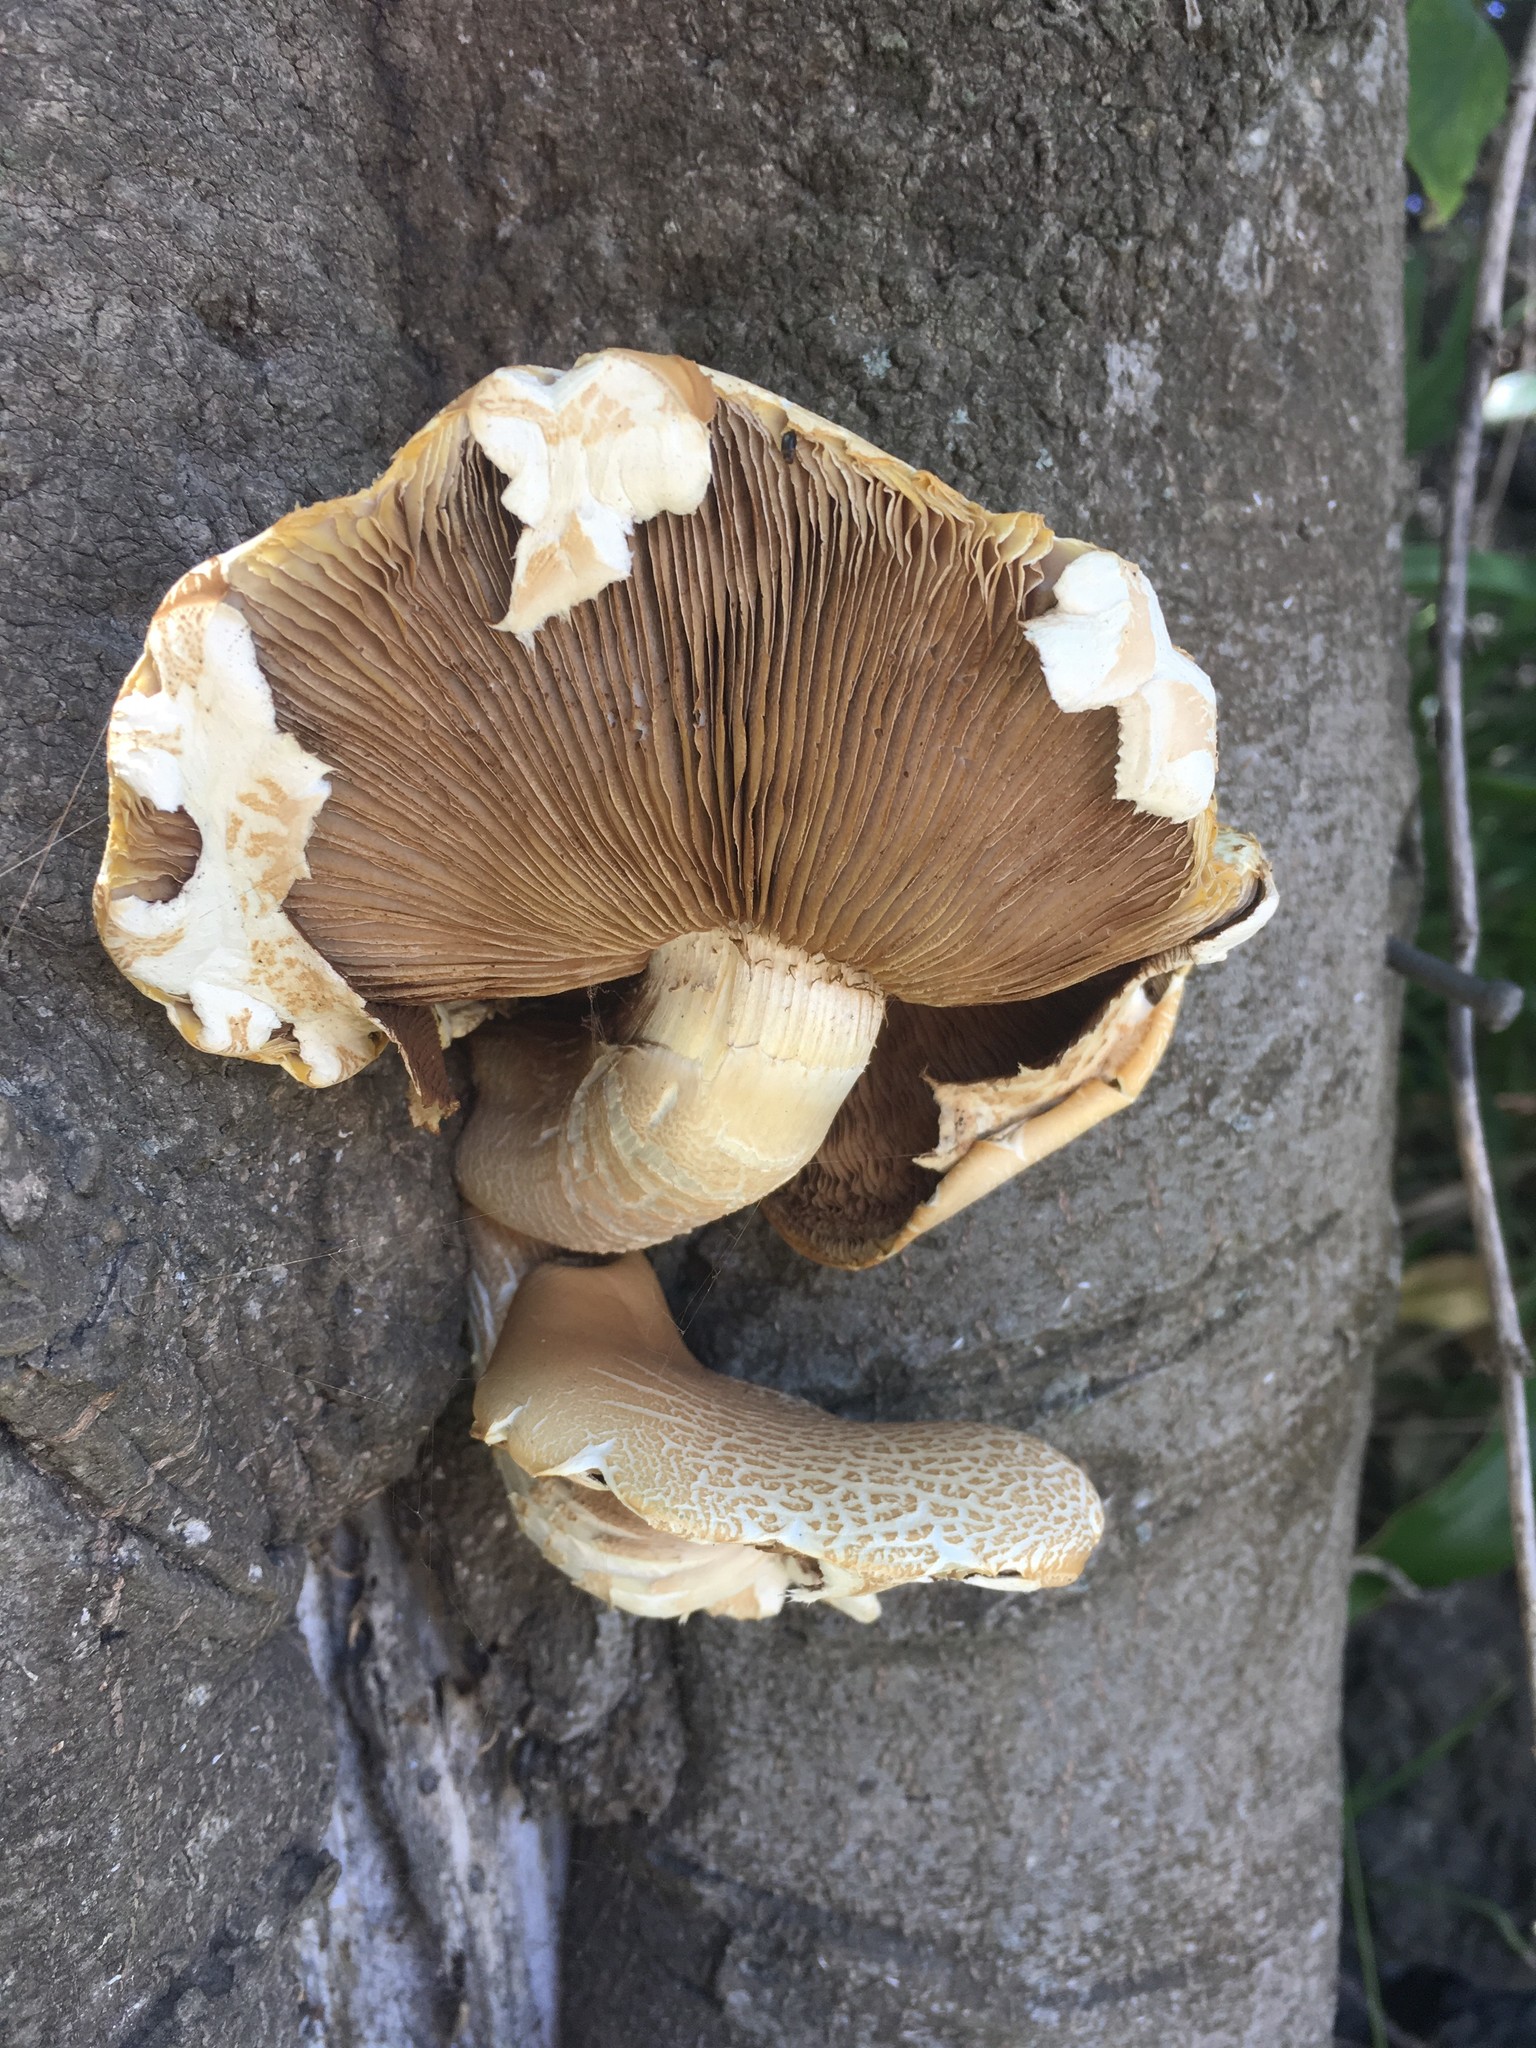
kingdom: Fungi
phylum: Basidiomycota
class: Agaricomycetes
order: Agaricales
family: Tubariaceae
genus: Cyclocybe
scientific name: Cyclocybe parasitica
